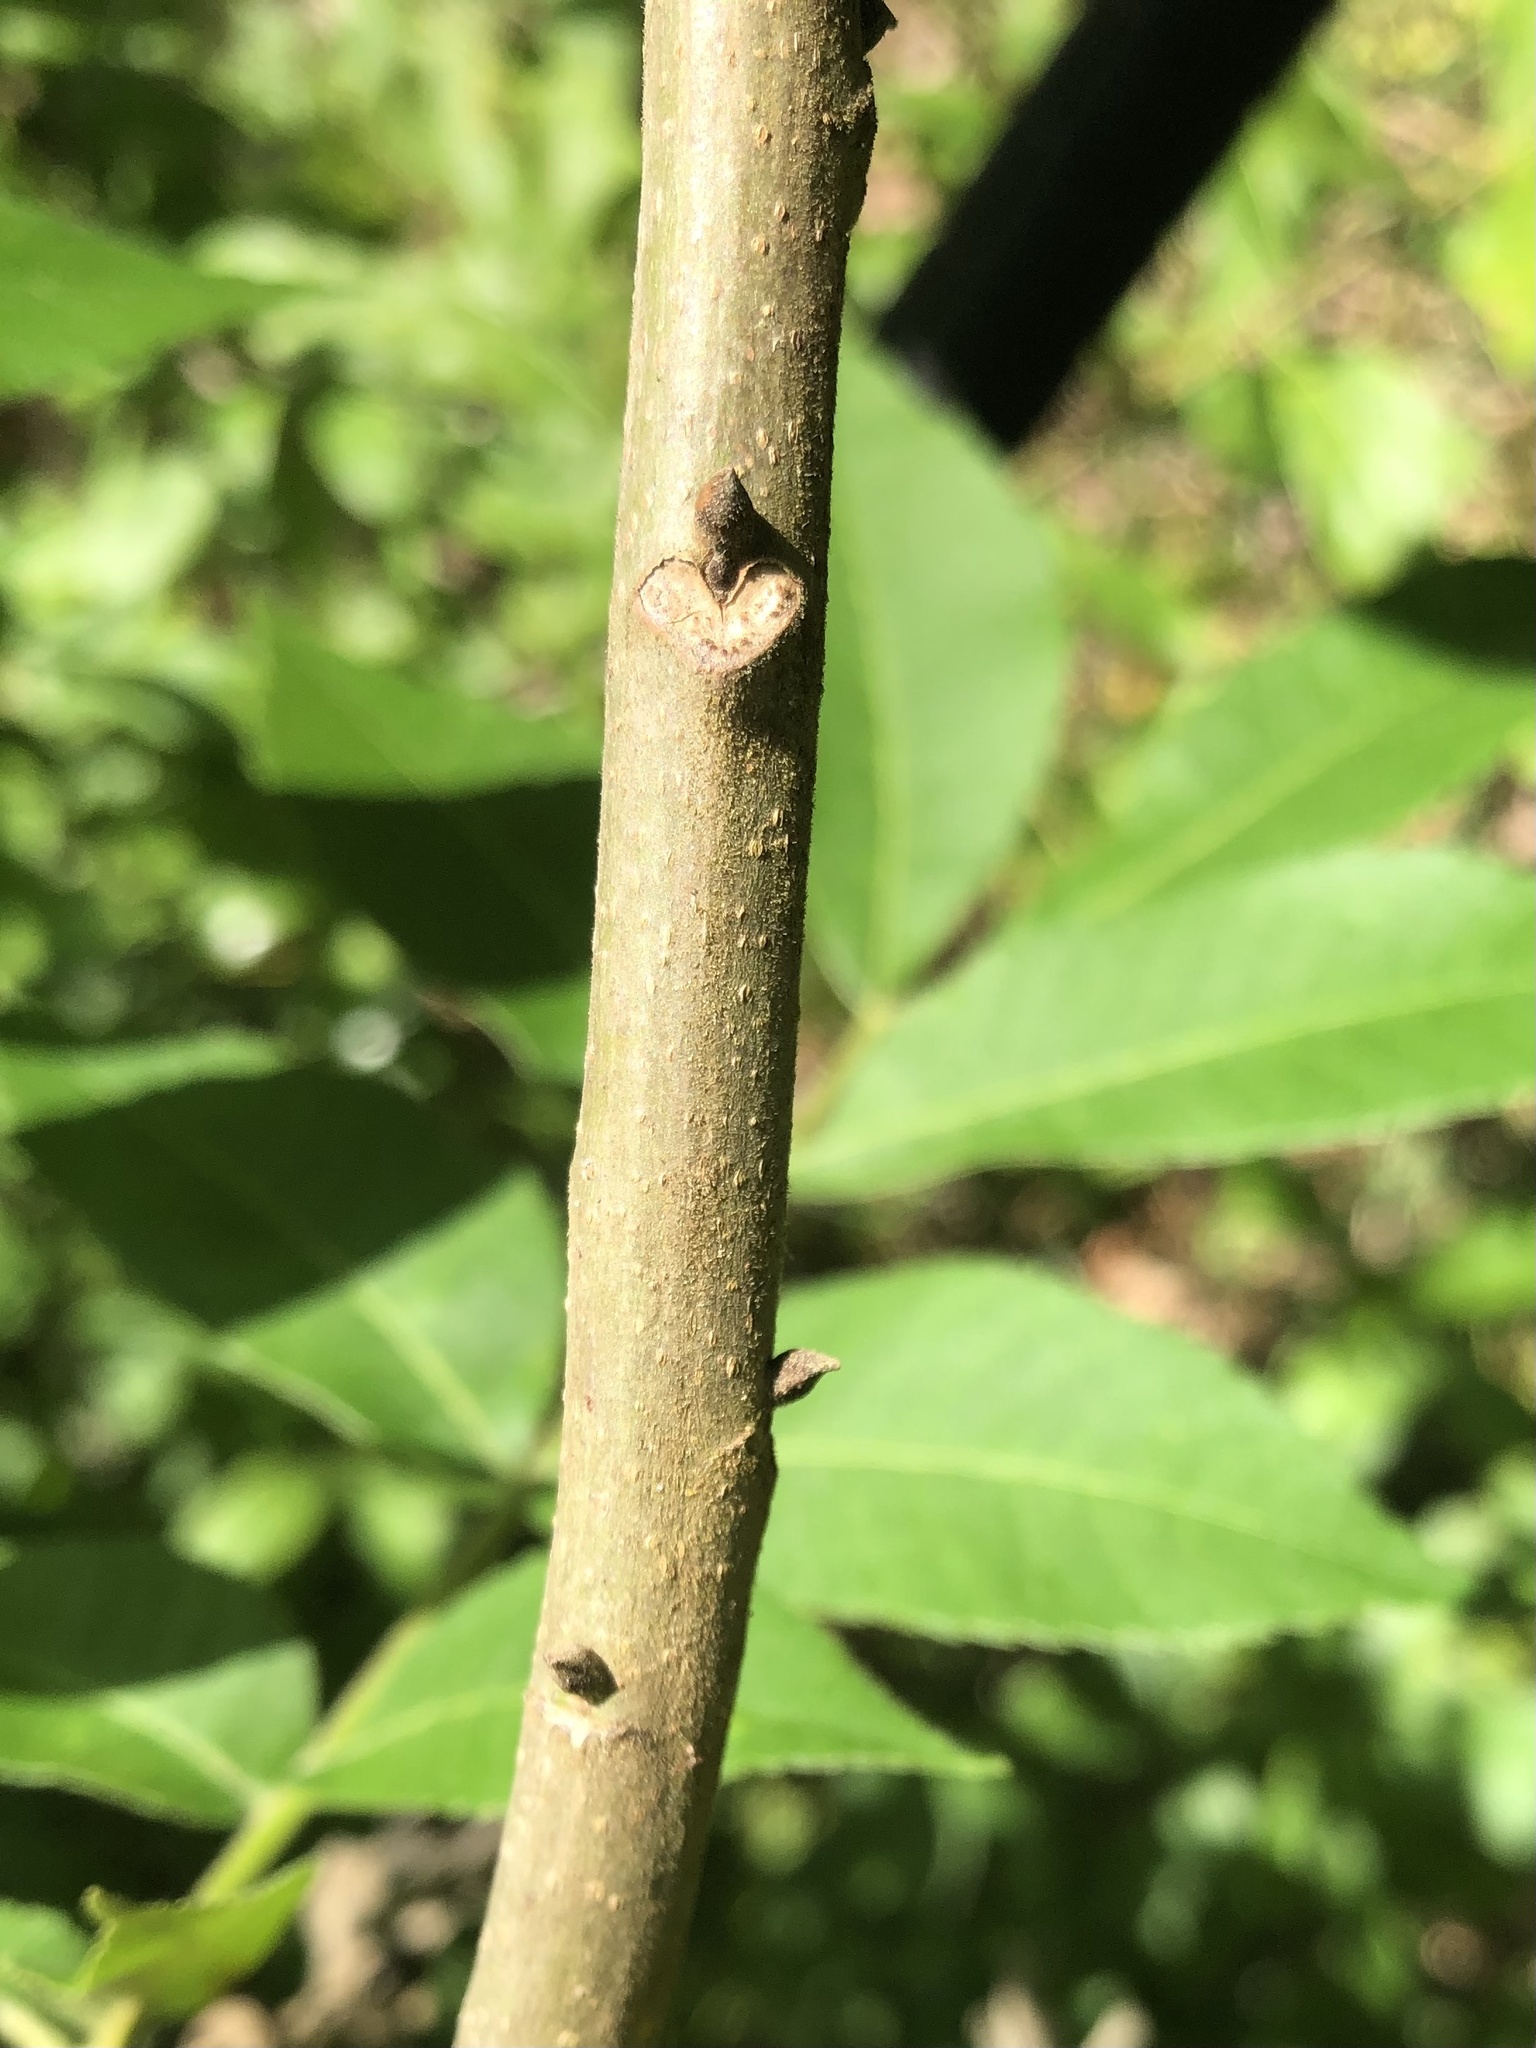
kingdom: Plantae
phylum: Tracheophyta
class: Magnoliopsida
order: Fagales
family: Juglandaceae
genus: Carya
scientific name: Carya illinoinensis
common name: Pecan
